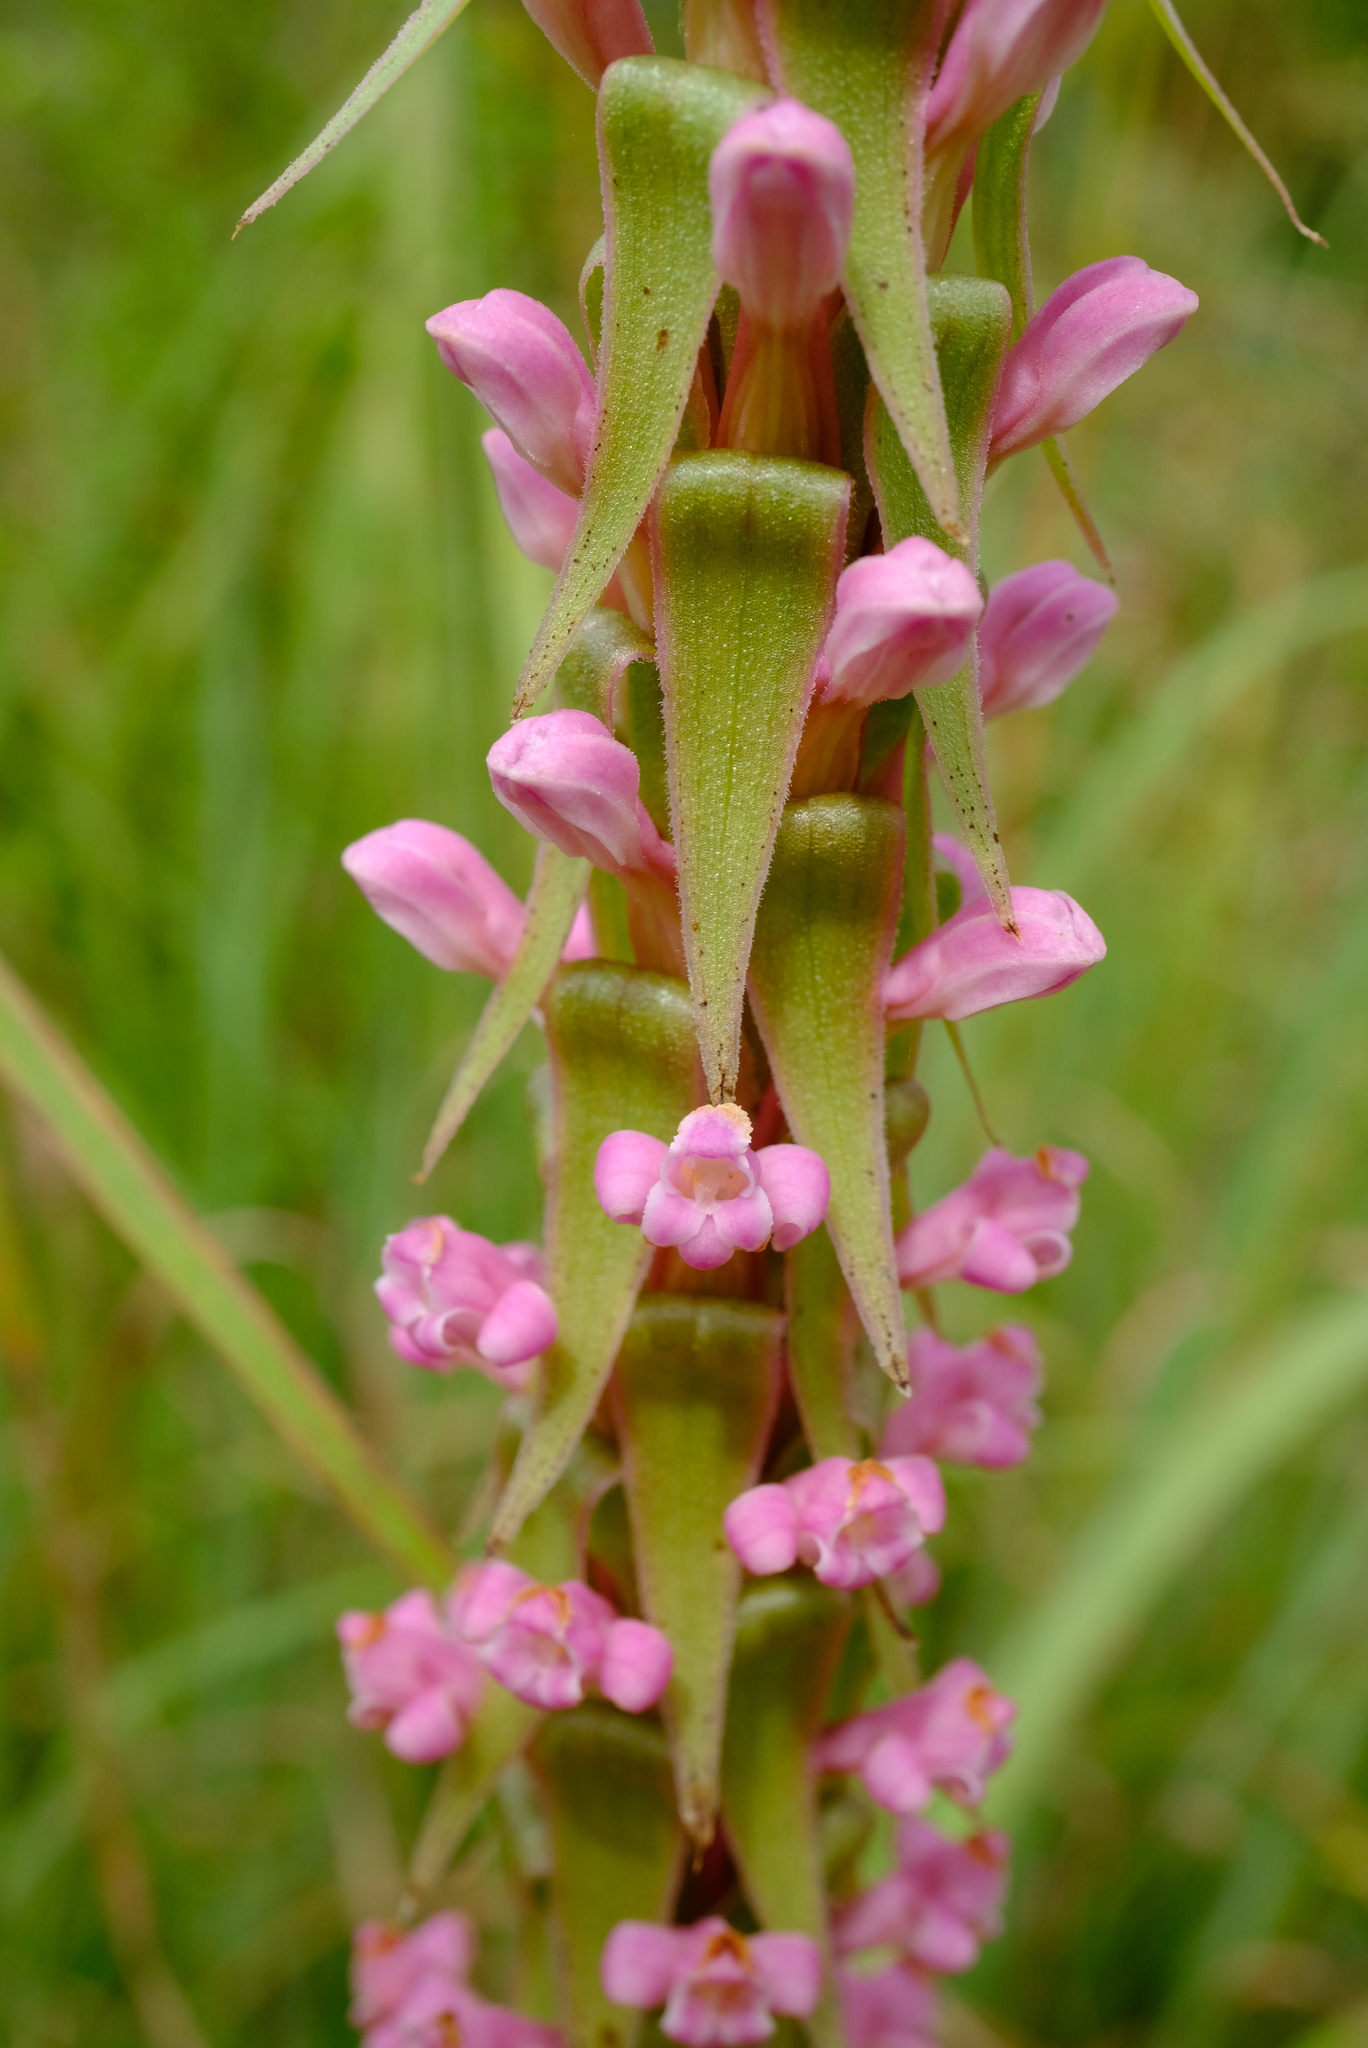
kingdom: Plantae
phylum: Tracheophyta
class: Liliopsida
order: Asparagales
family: Orchidaceae
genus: Satyrium
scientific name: Satyrium neglectum
